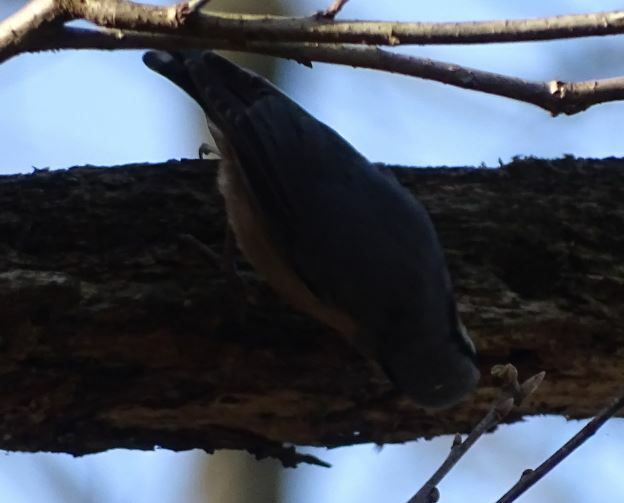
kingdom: Animalia
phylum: Chordata
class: Aves
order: Passeriformes
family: Sittidae
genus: Sitta
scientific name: Sitta europaea
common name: Eurasian nuthatch
